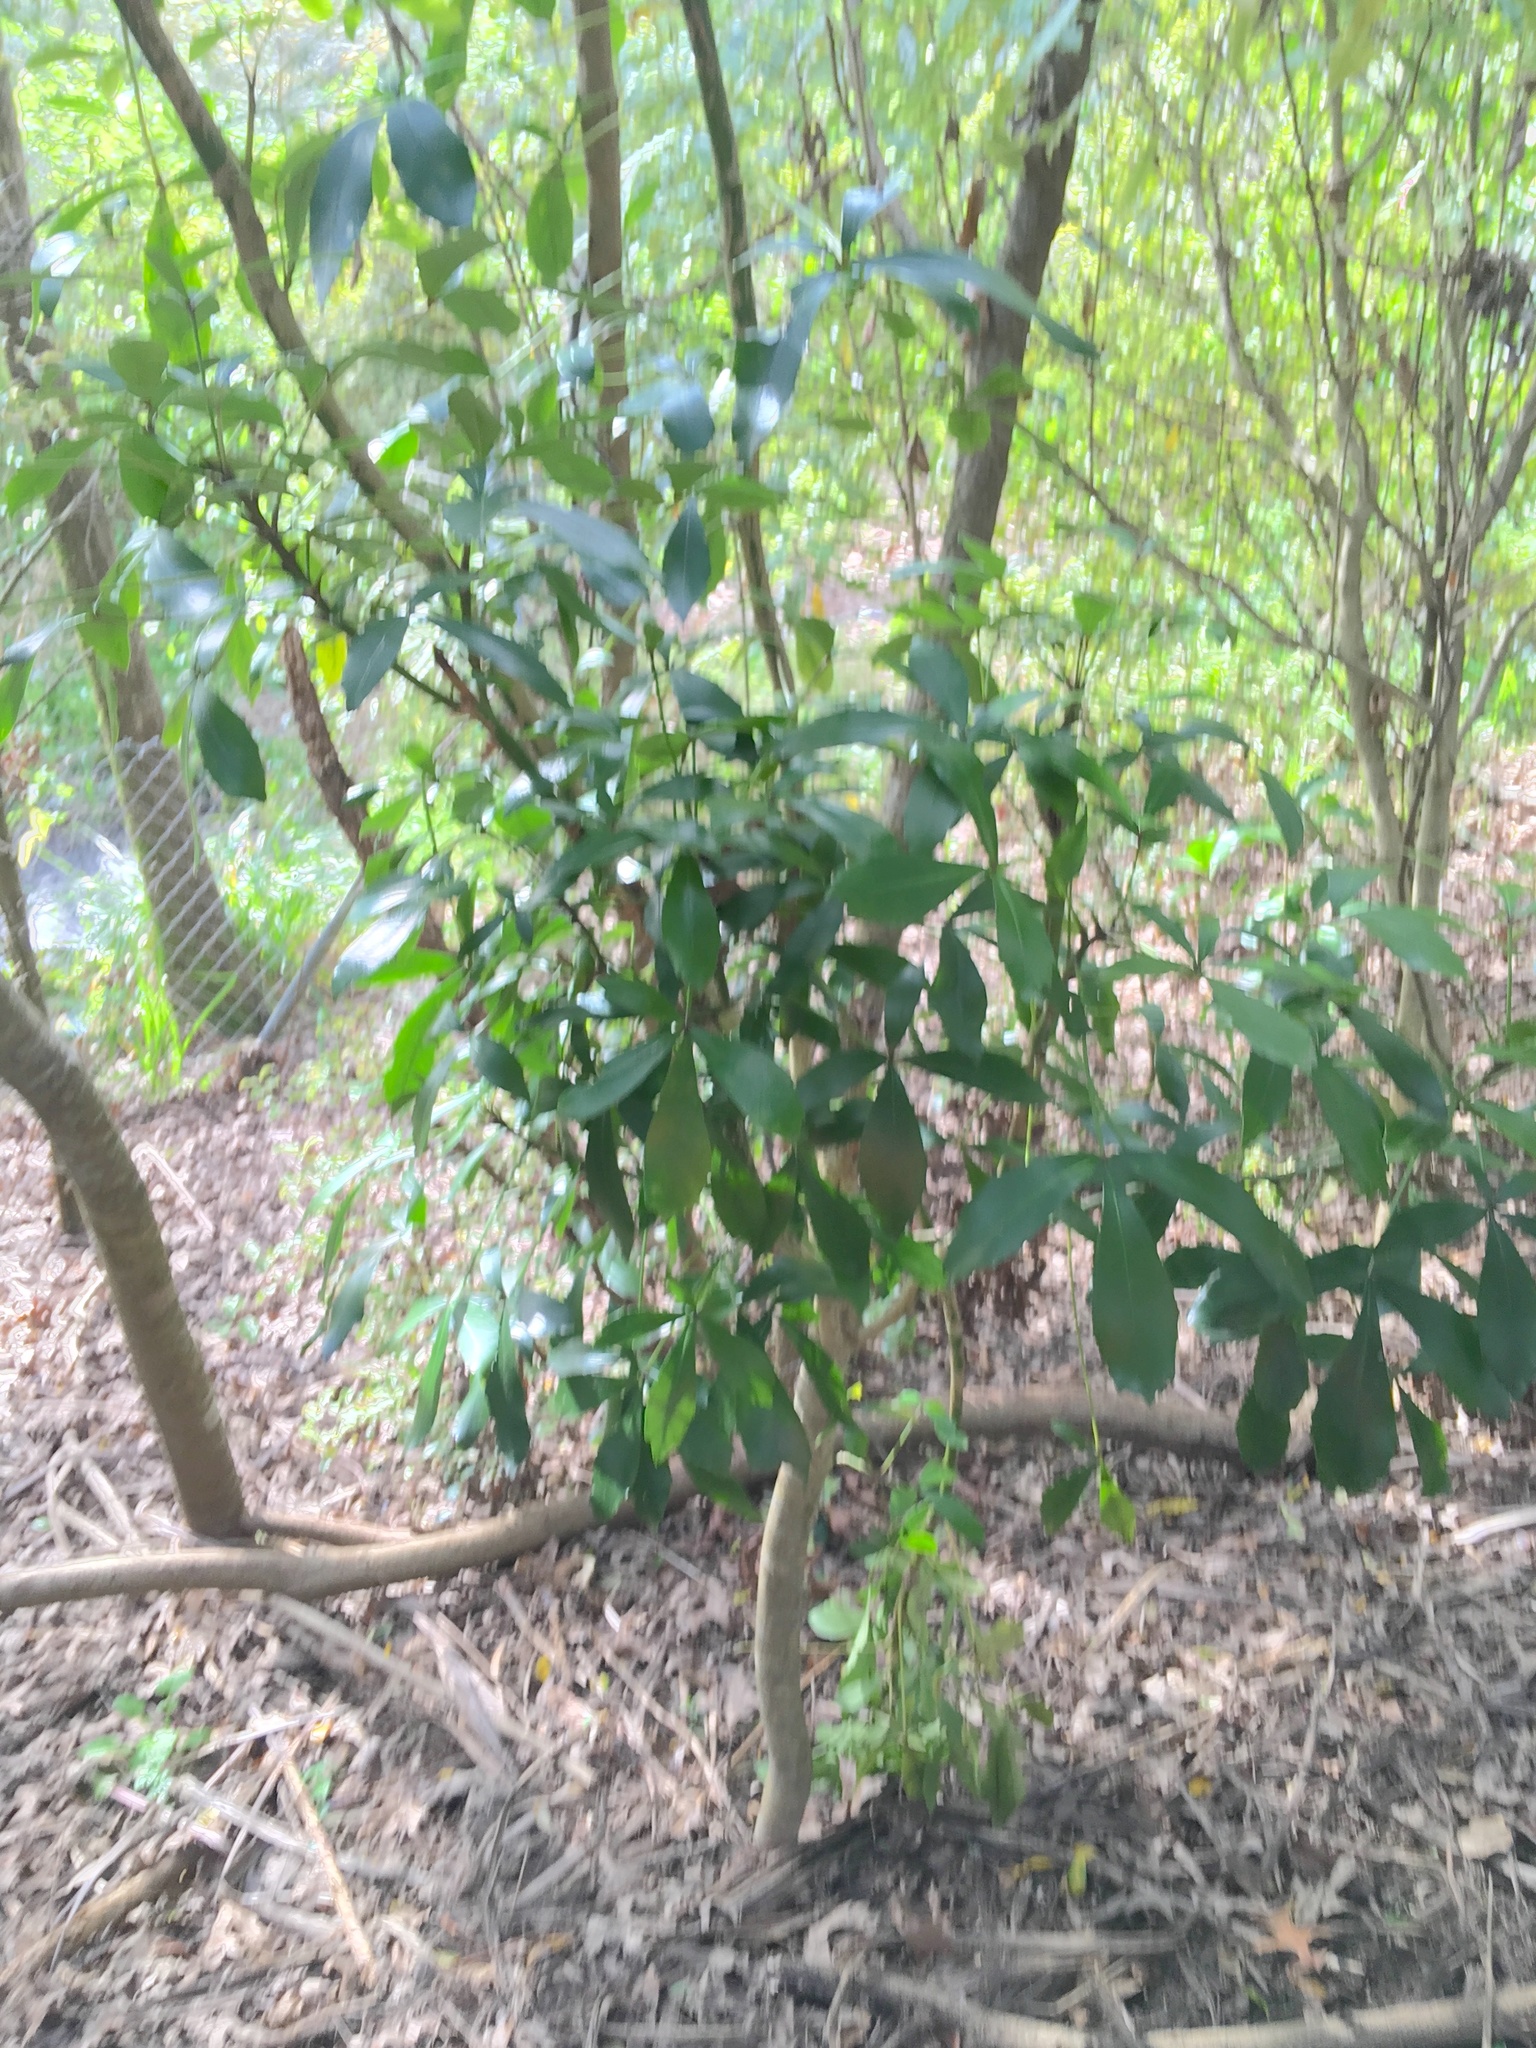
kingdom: Plantae
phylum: Tracheophyta
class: Magnoliopsida
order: Apiales
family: Araliaceae
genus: Pseudopanax
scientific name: Pseudopanax lessonii
